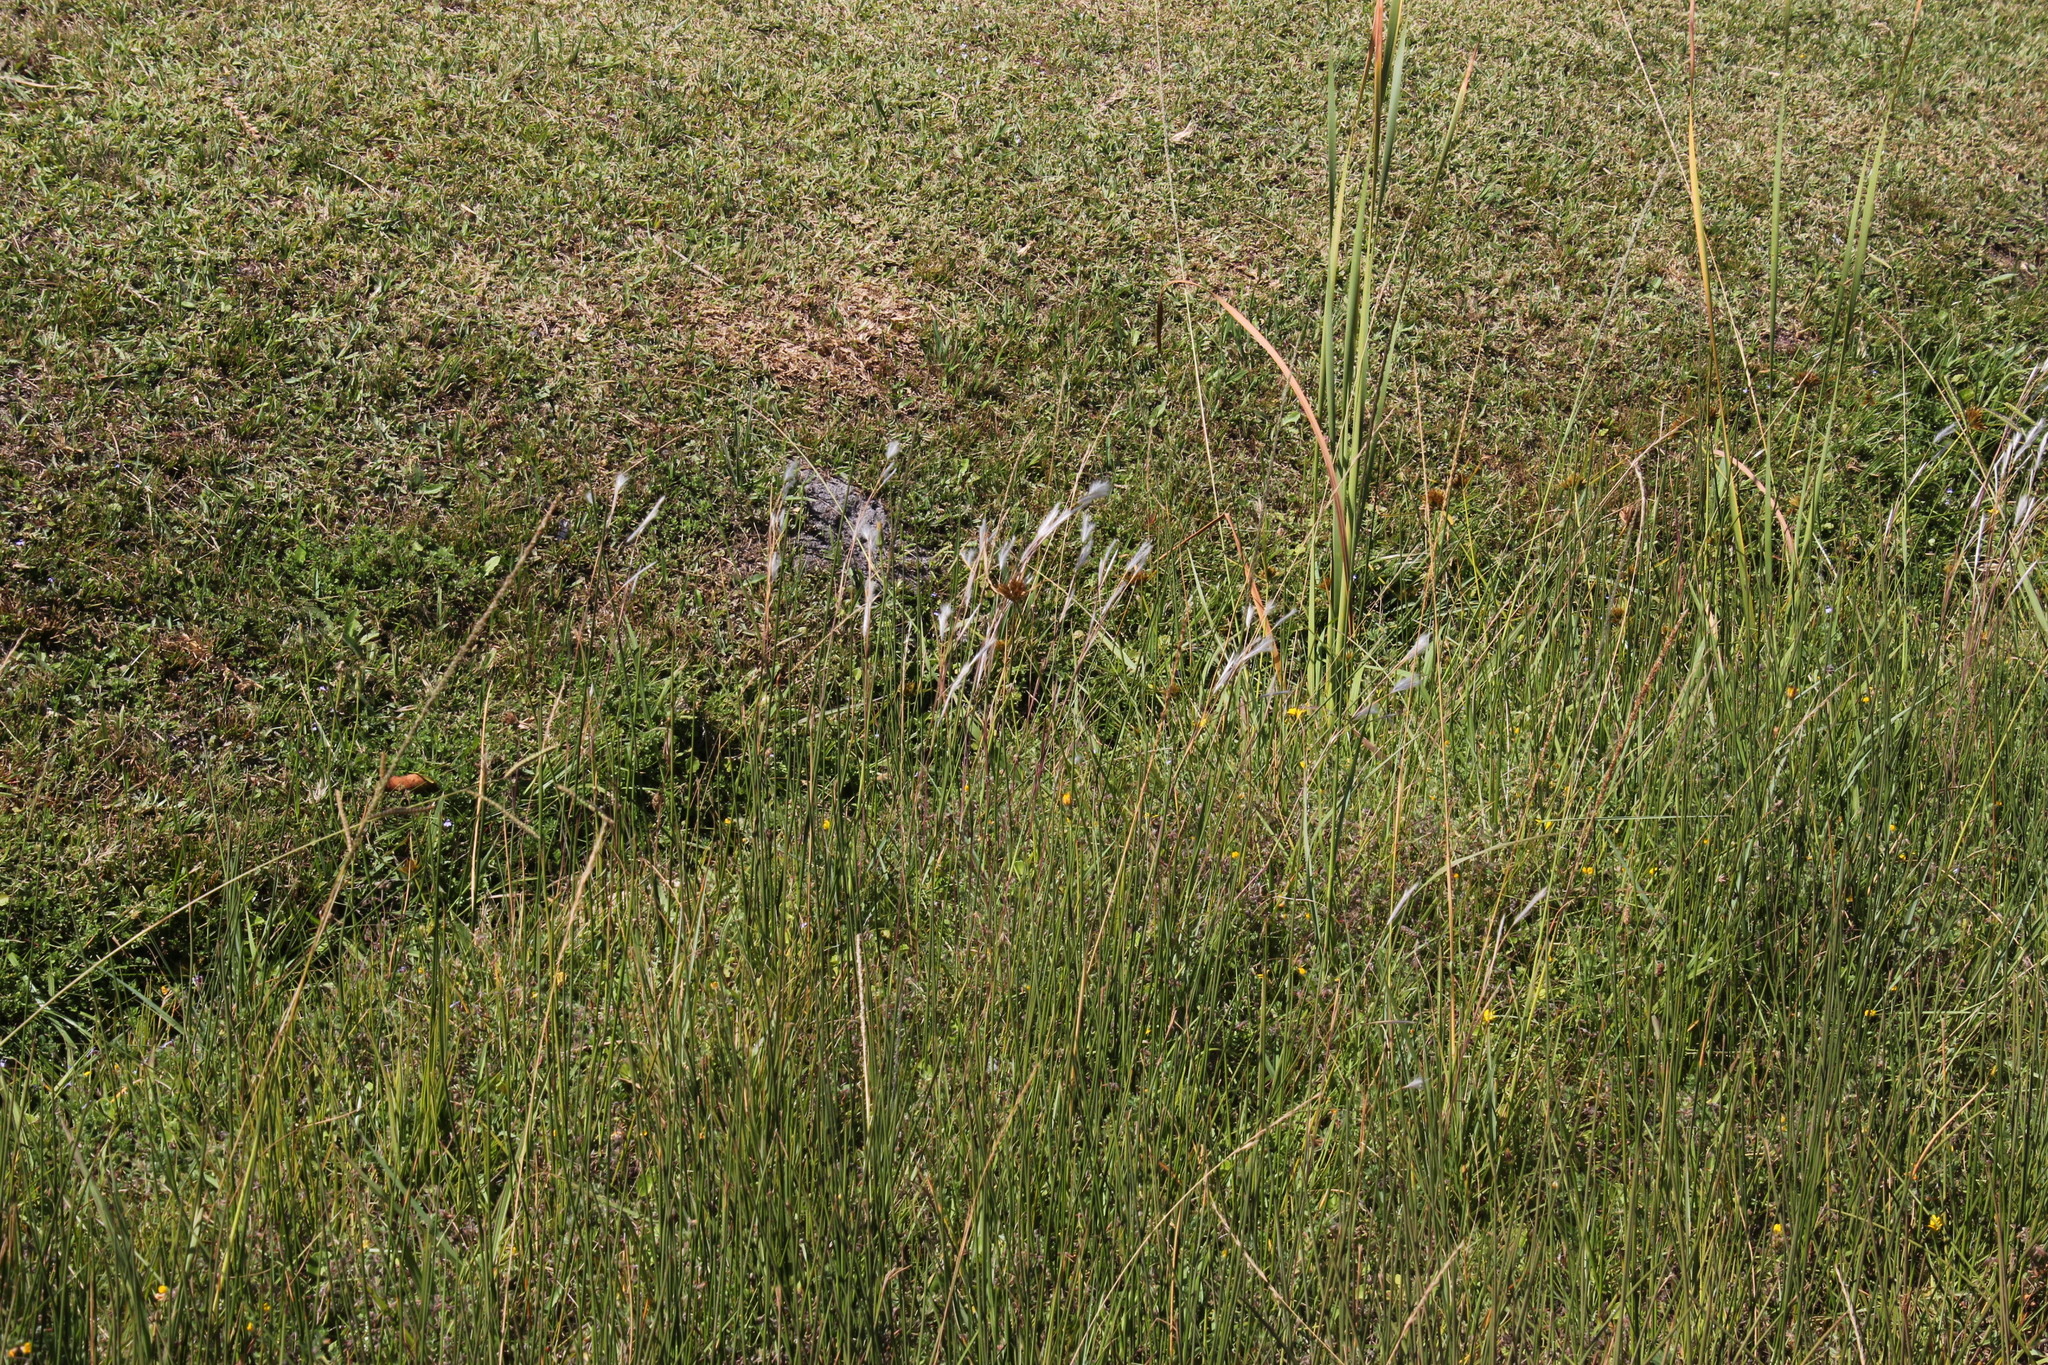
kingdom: Plantae
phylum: Tracheophyta
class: Liliopsida
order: Poales
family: Poaceae
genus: Andropogon
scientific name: Andropogon eucomus
